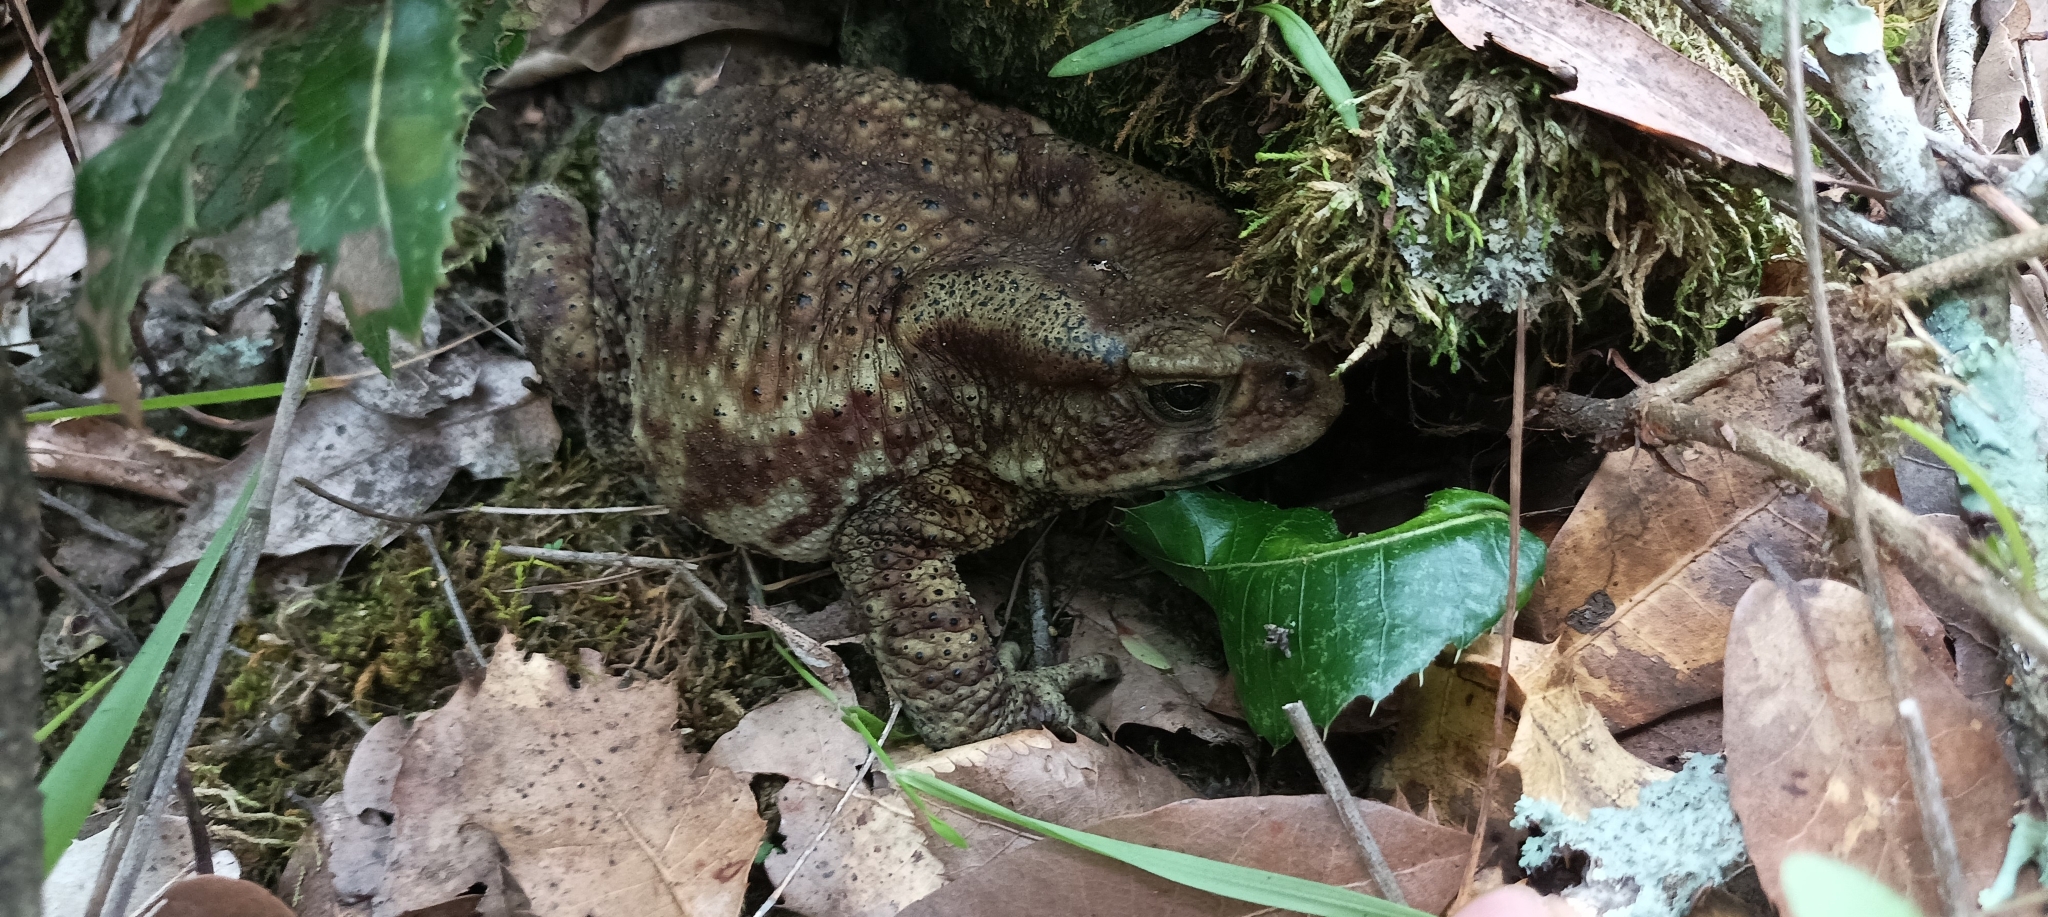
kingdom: Animalia
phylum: Chordata
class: Amphibia
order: Anura
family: Bufonidae
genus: Duttaphrynus
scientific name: Duttaphrynus himalayanus
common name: Günther's high altitude toad
